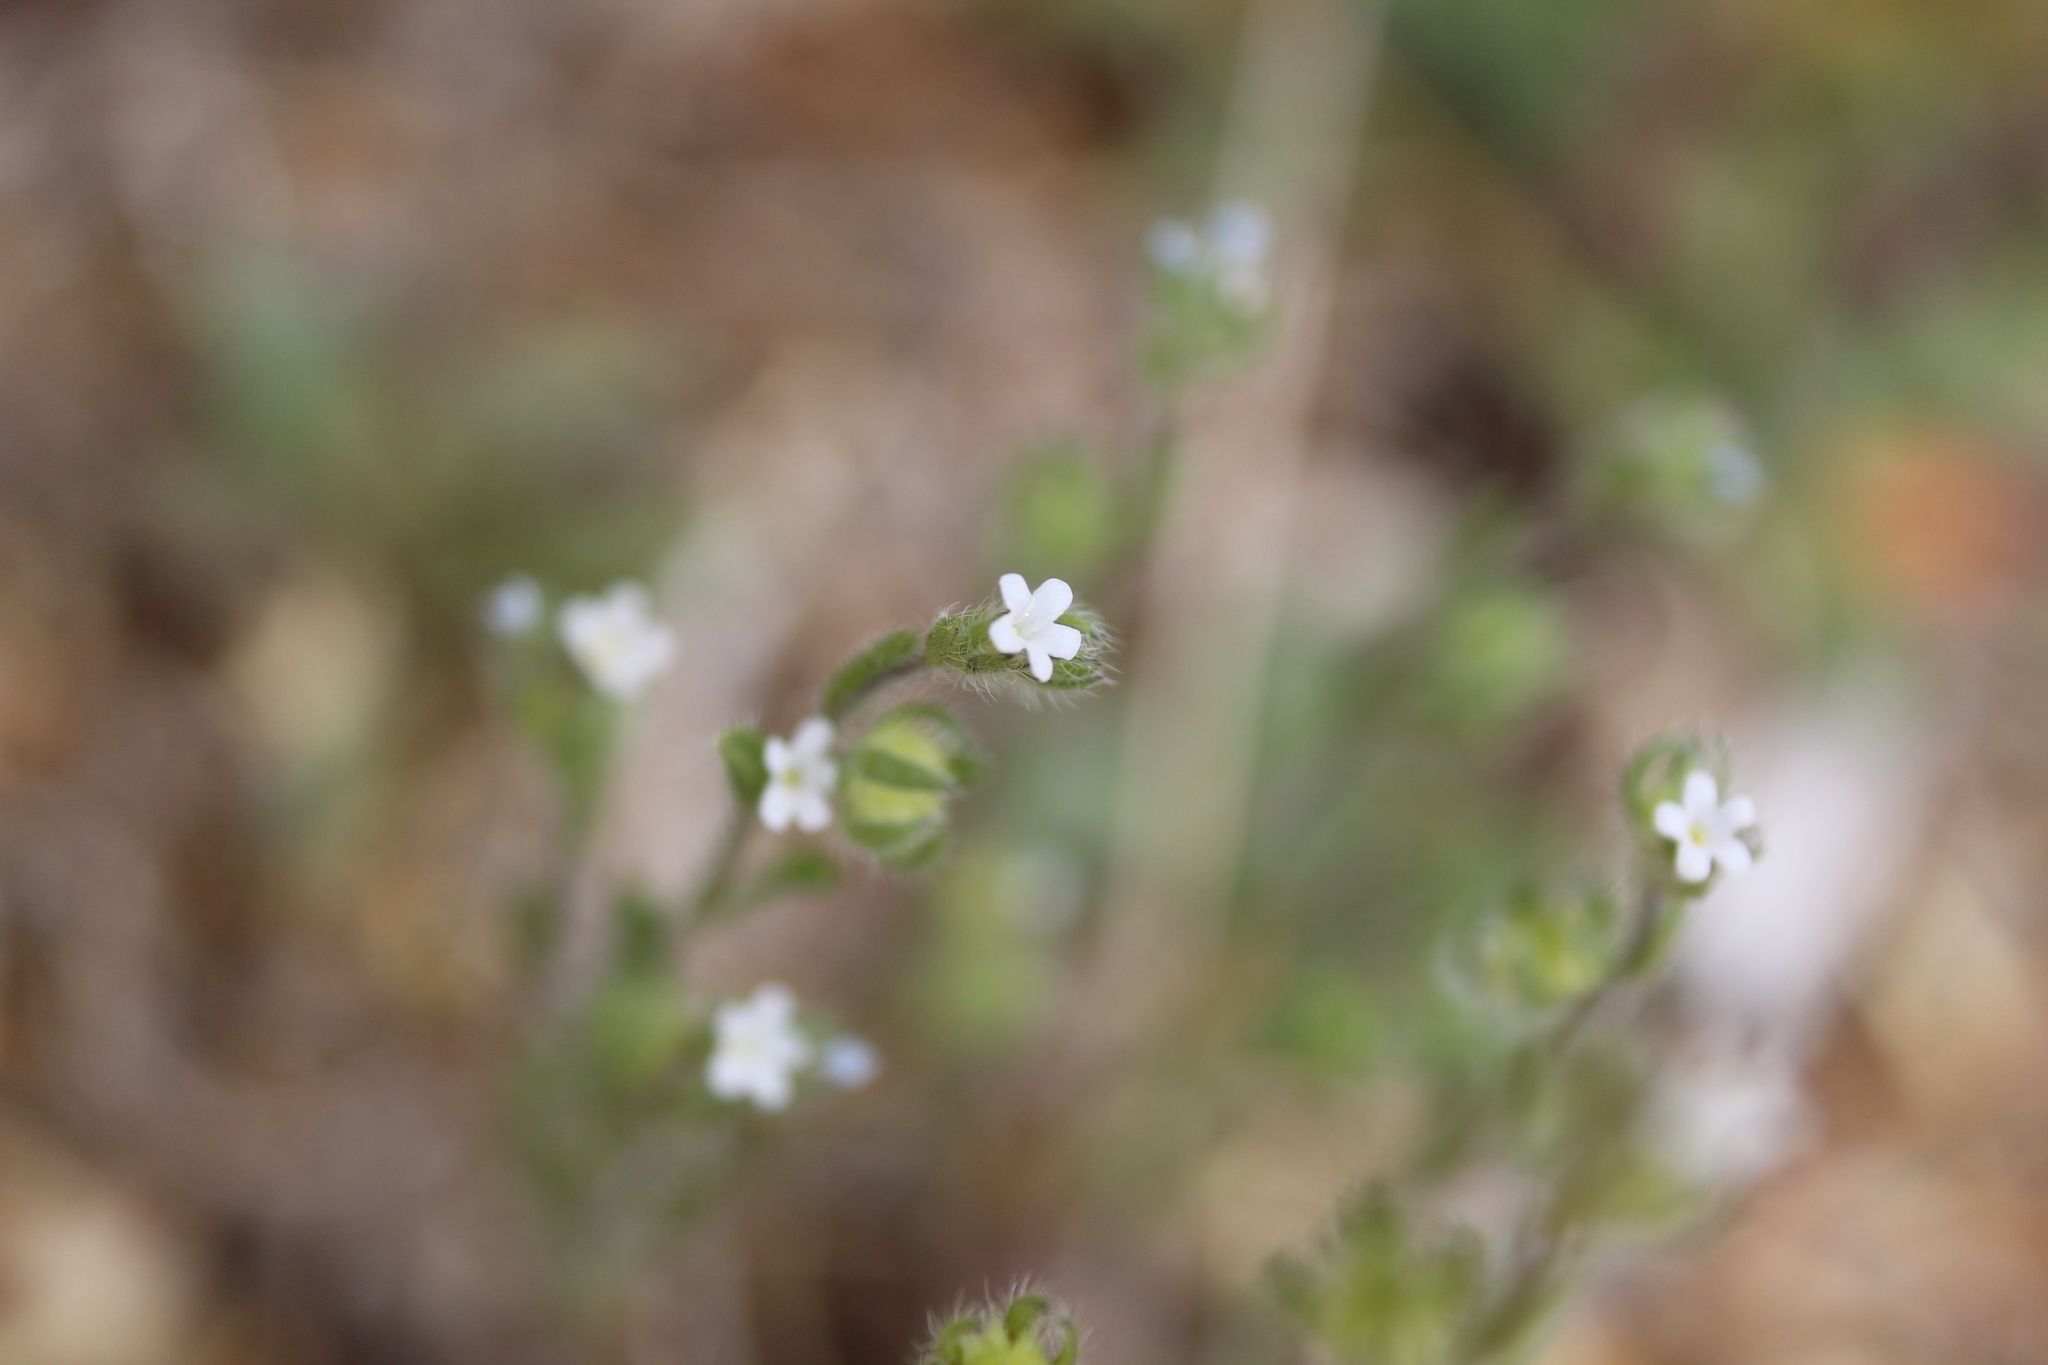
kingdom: Plantae
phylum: Tracheophyta
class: Magnoliopsida
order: Boraginales
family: Boraginaceae
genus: Lappula
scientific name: Lappula occidentalis
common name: Western stickseed
